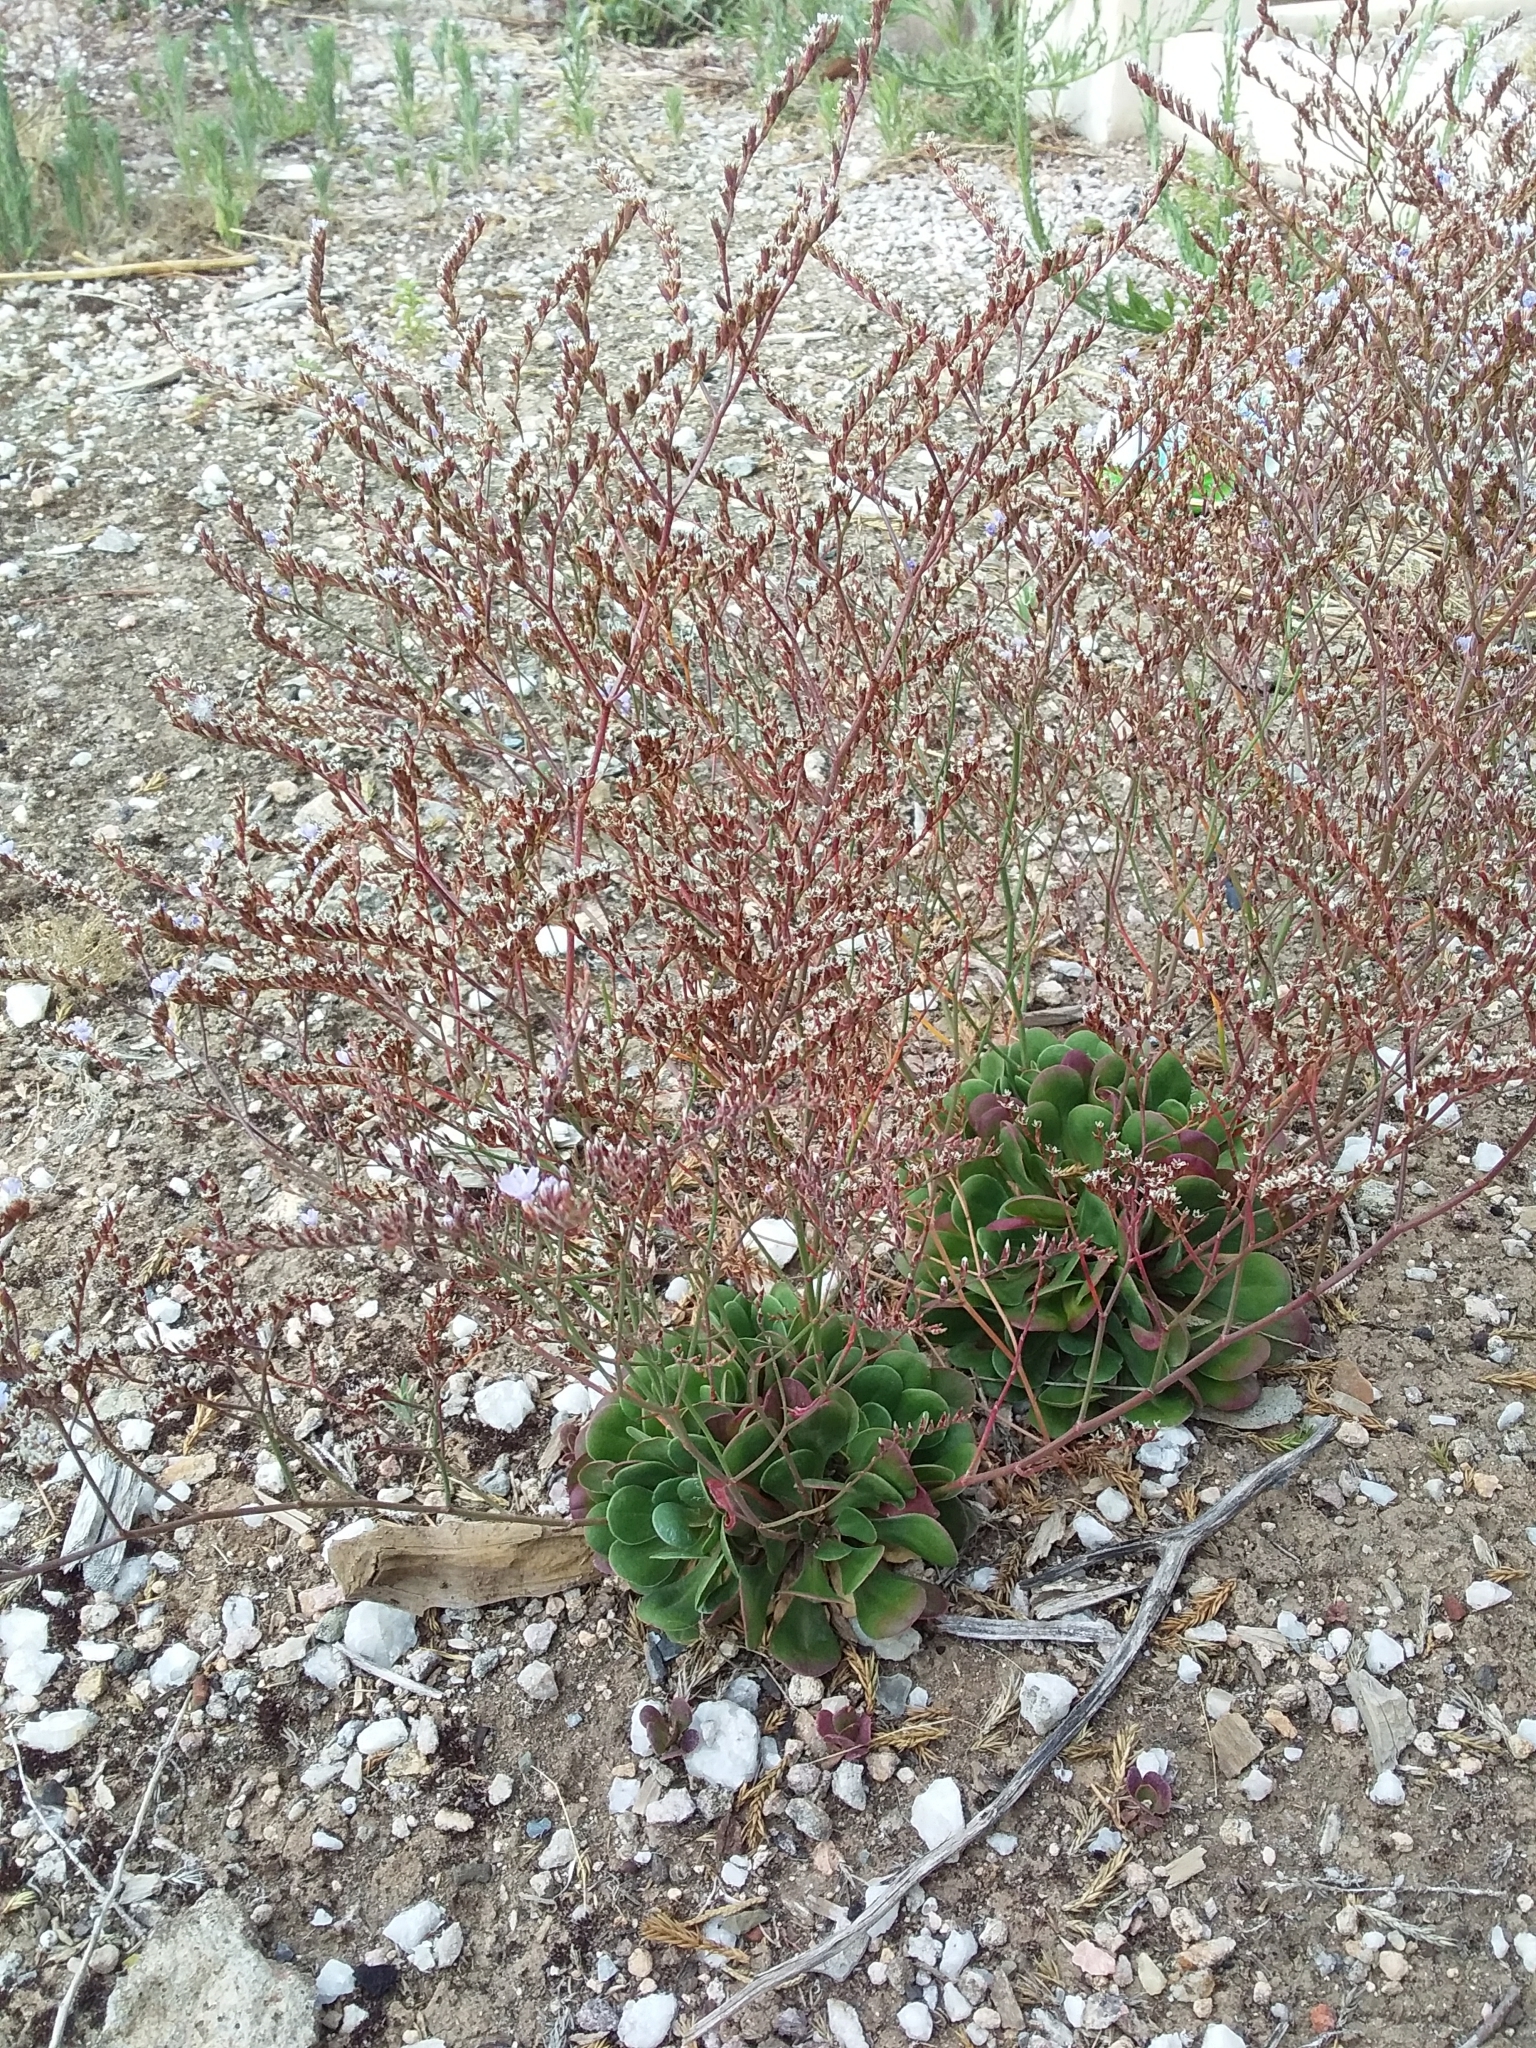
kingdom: Plantae
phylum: Tracheophyta
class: Magnoliopsida
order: Caryophyllales
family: Plumbaginaceae
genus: Limonium
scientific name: Limonium companyonis
